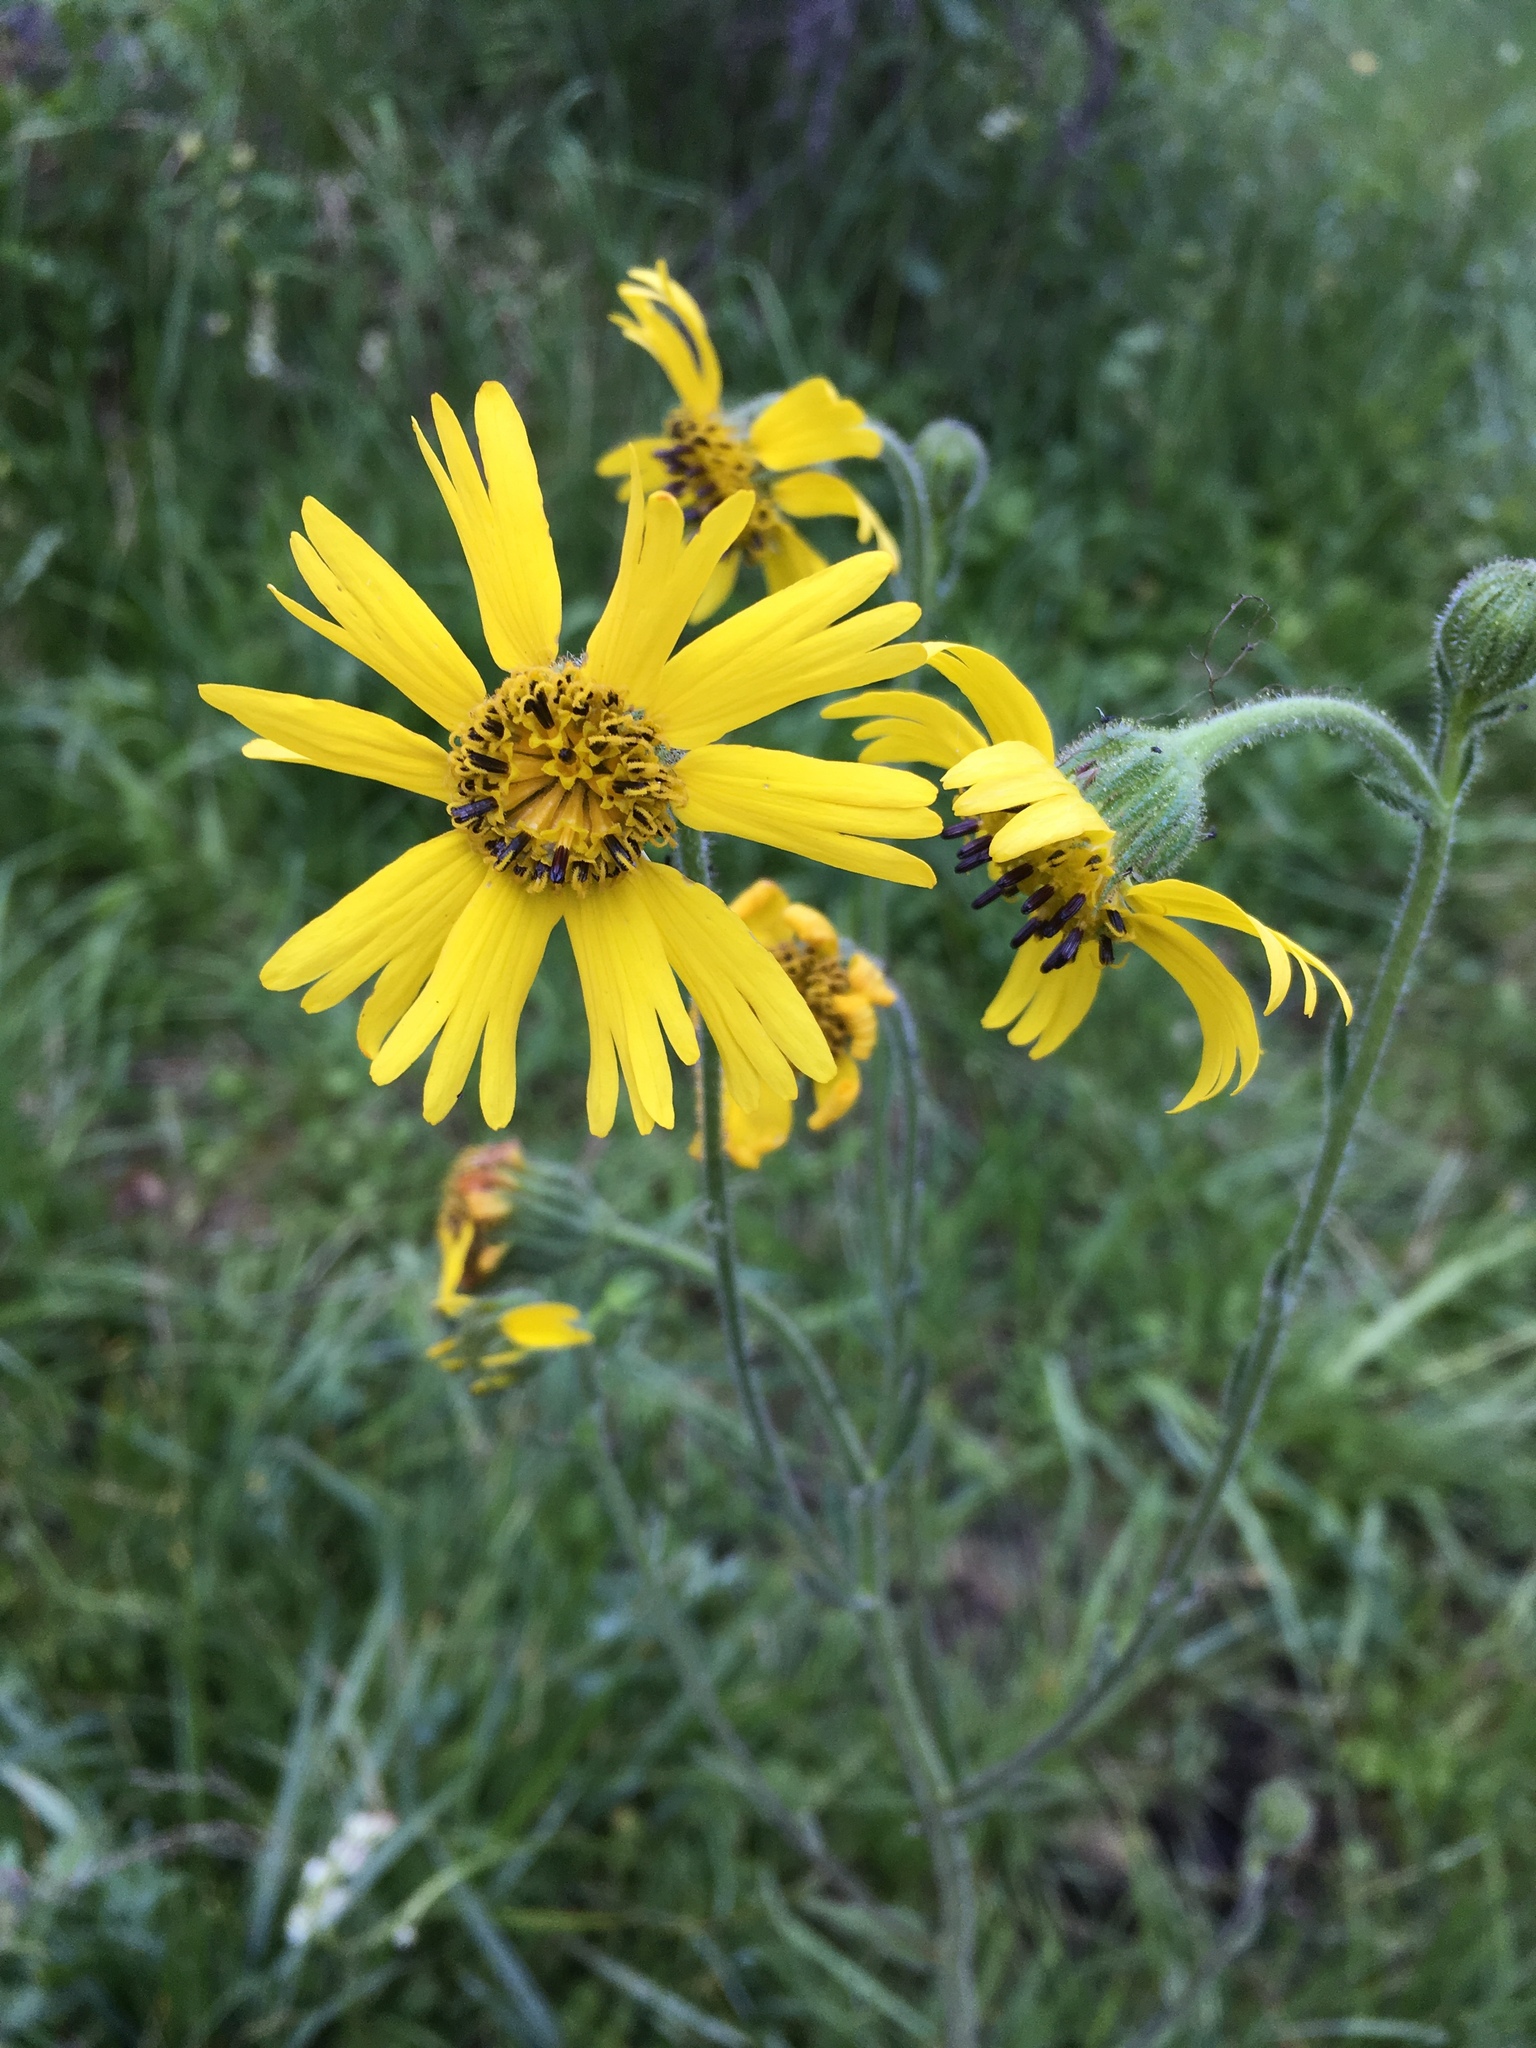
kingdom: Plantae
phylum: Tracheophyta
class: Magnoliopsida
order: Asterales
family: Asteraceae
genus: Kyhosia
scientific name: Kyhosia bolanderi
